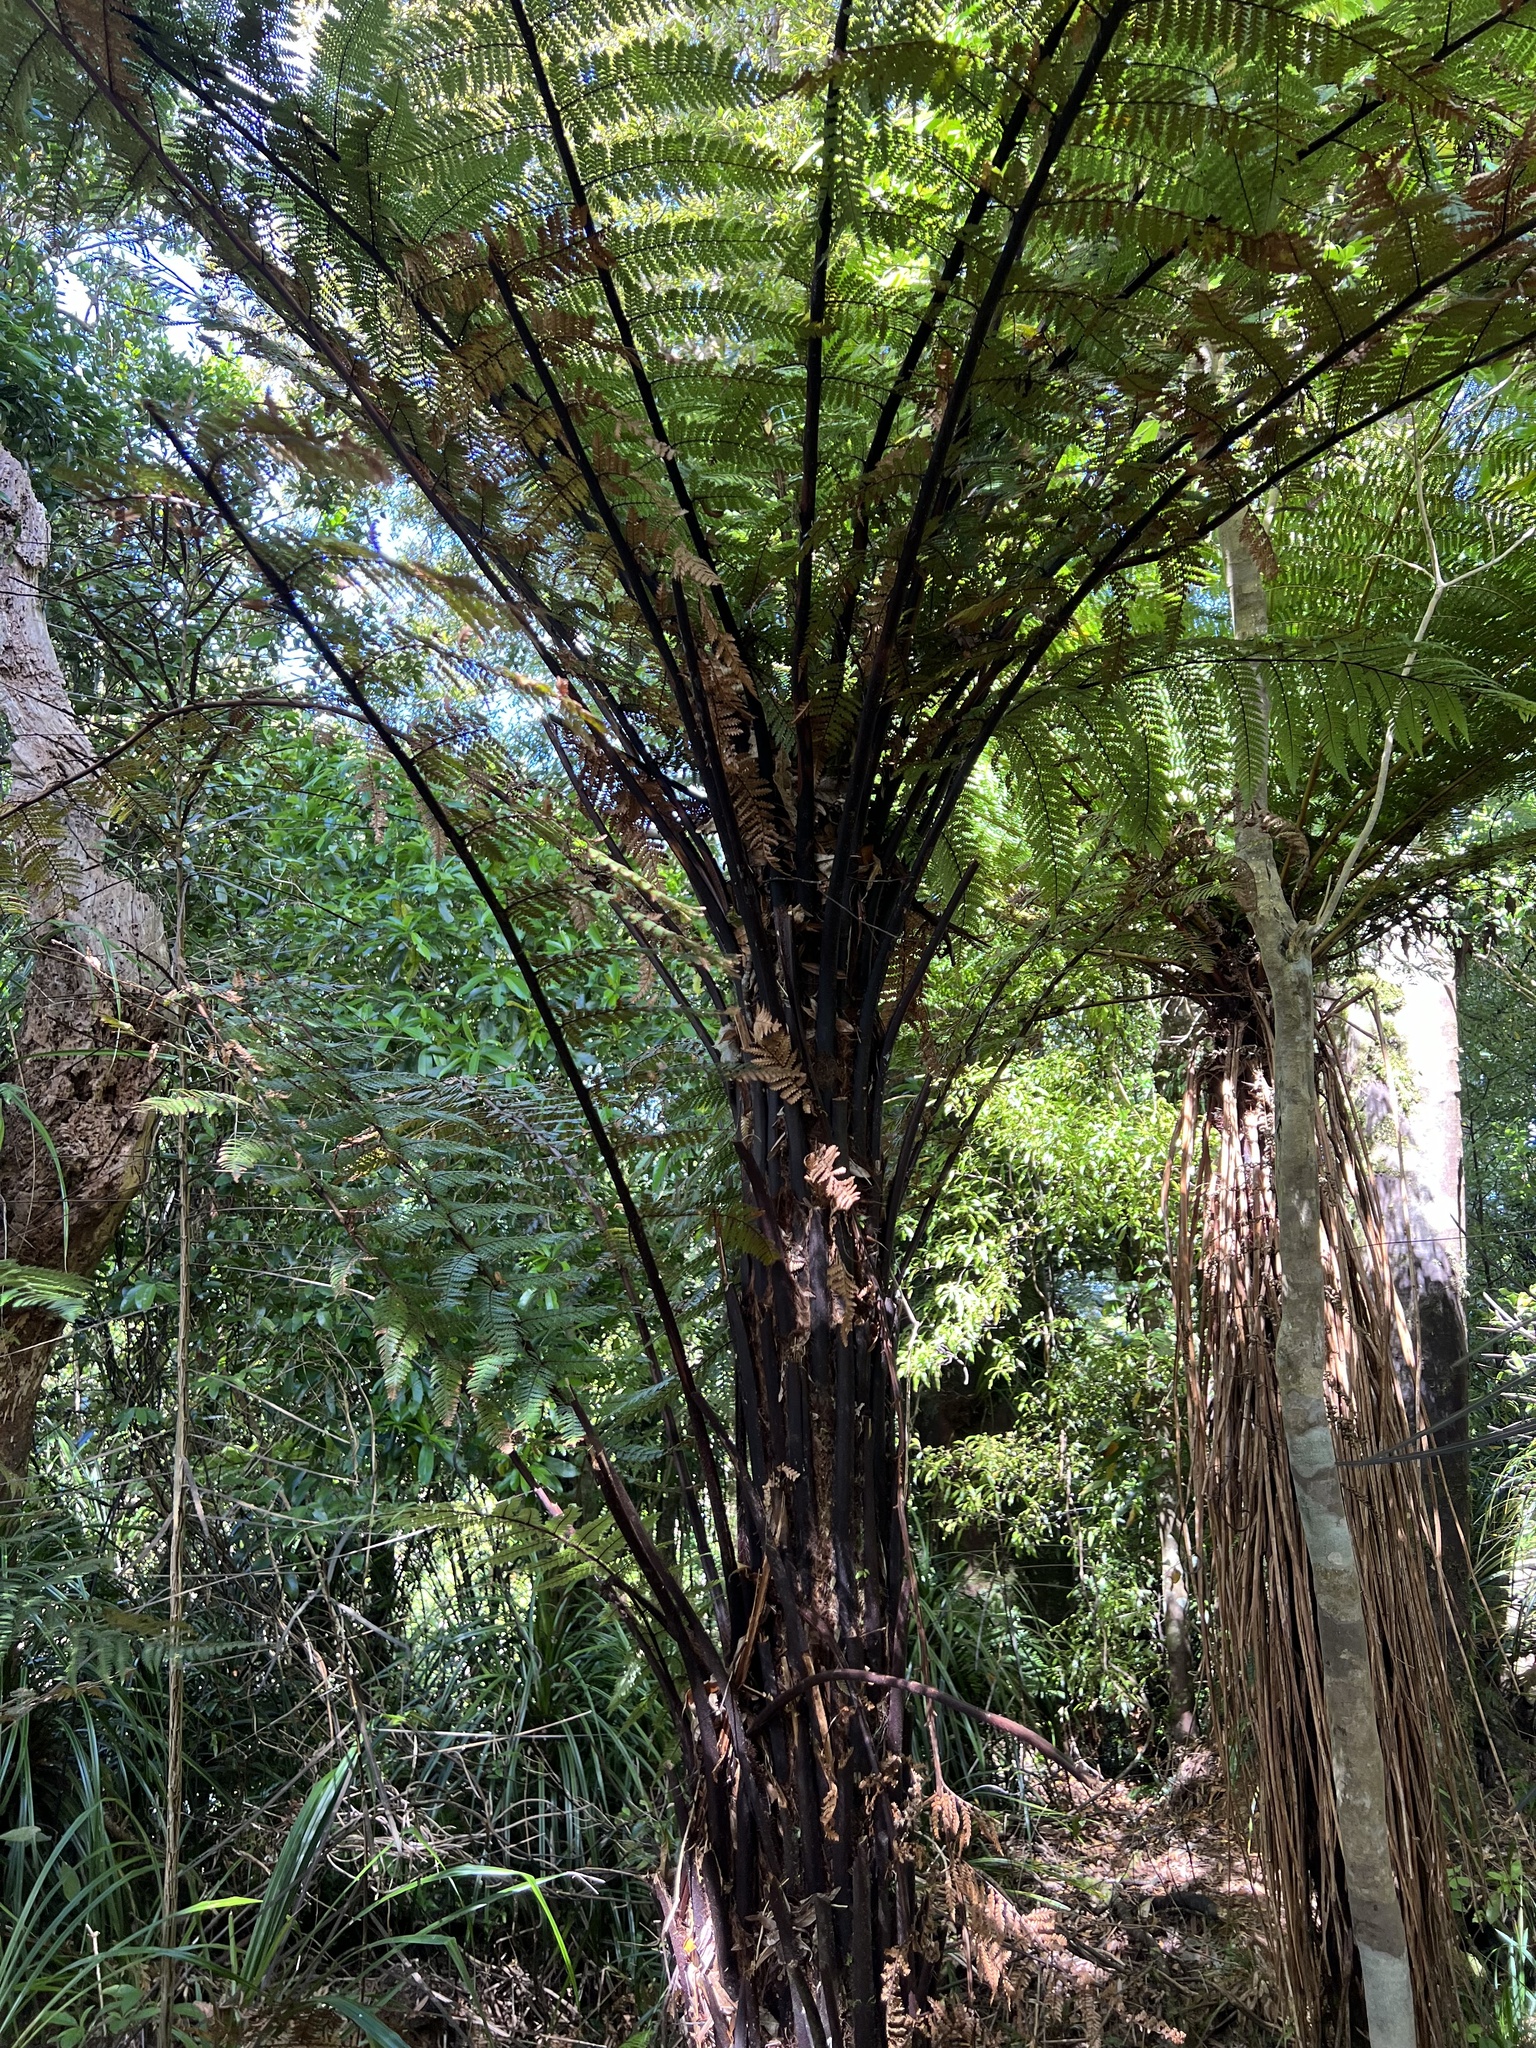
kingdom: Plantae
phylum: Tracheophyta
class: Polypodiopsida
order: Cyatheales
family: Dicksoniaceae
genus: Dicksonia
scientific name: Dicksonia squarrosa
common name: Hard treefern
